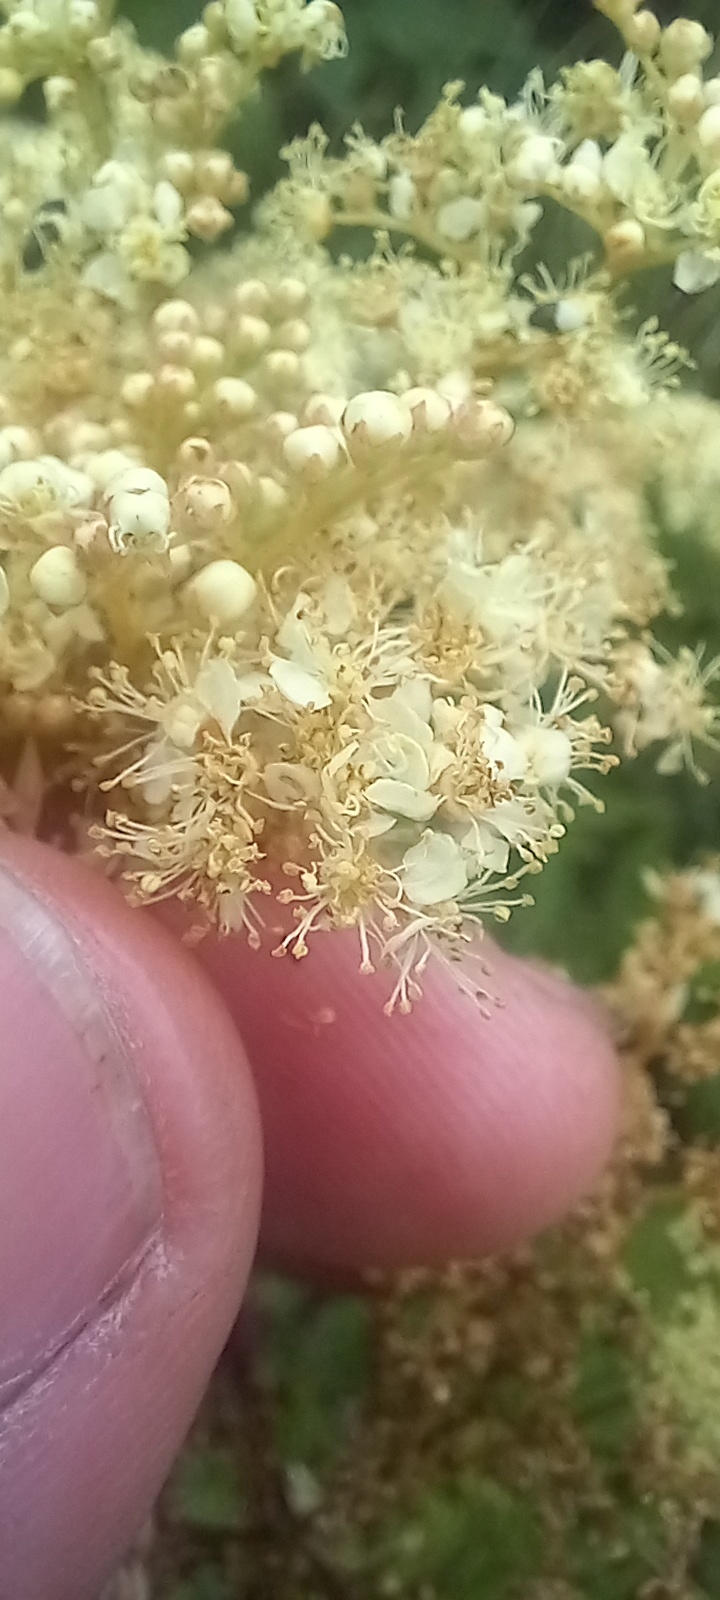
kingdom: Plantae
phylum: Tracheophyta
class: Magnoliopsida
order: Rosales
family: Rosaceae
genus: Filipendula
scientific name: Filipendula ulmaria
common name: Meadowsweet
